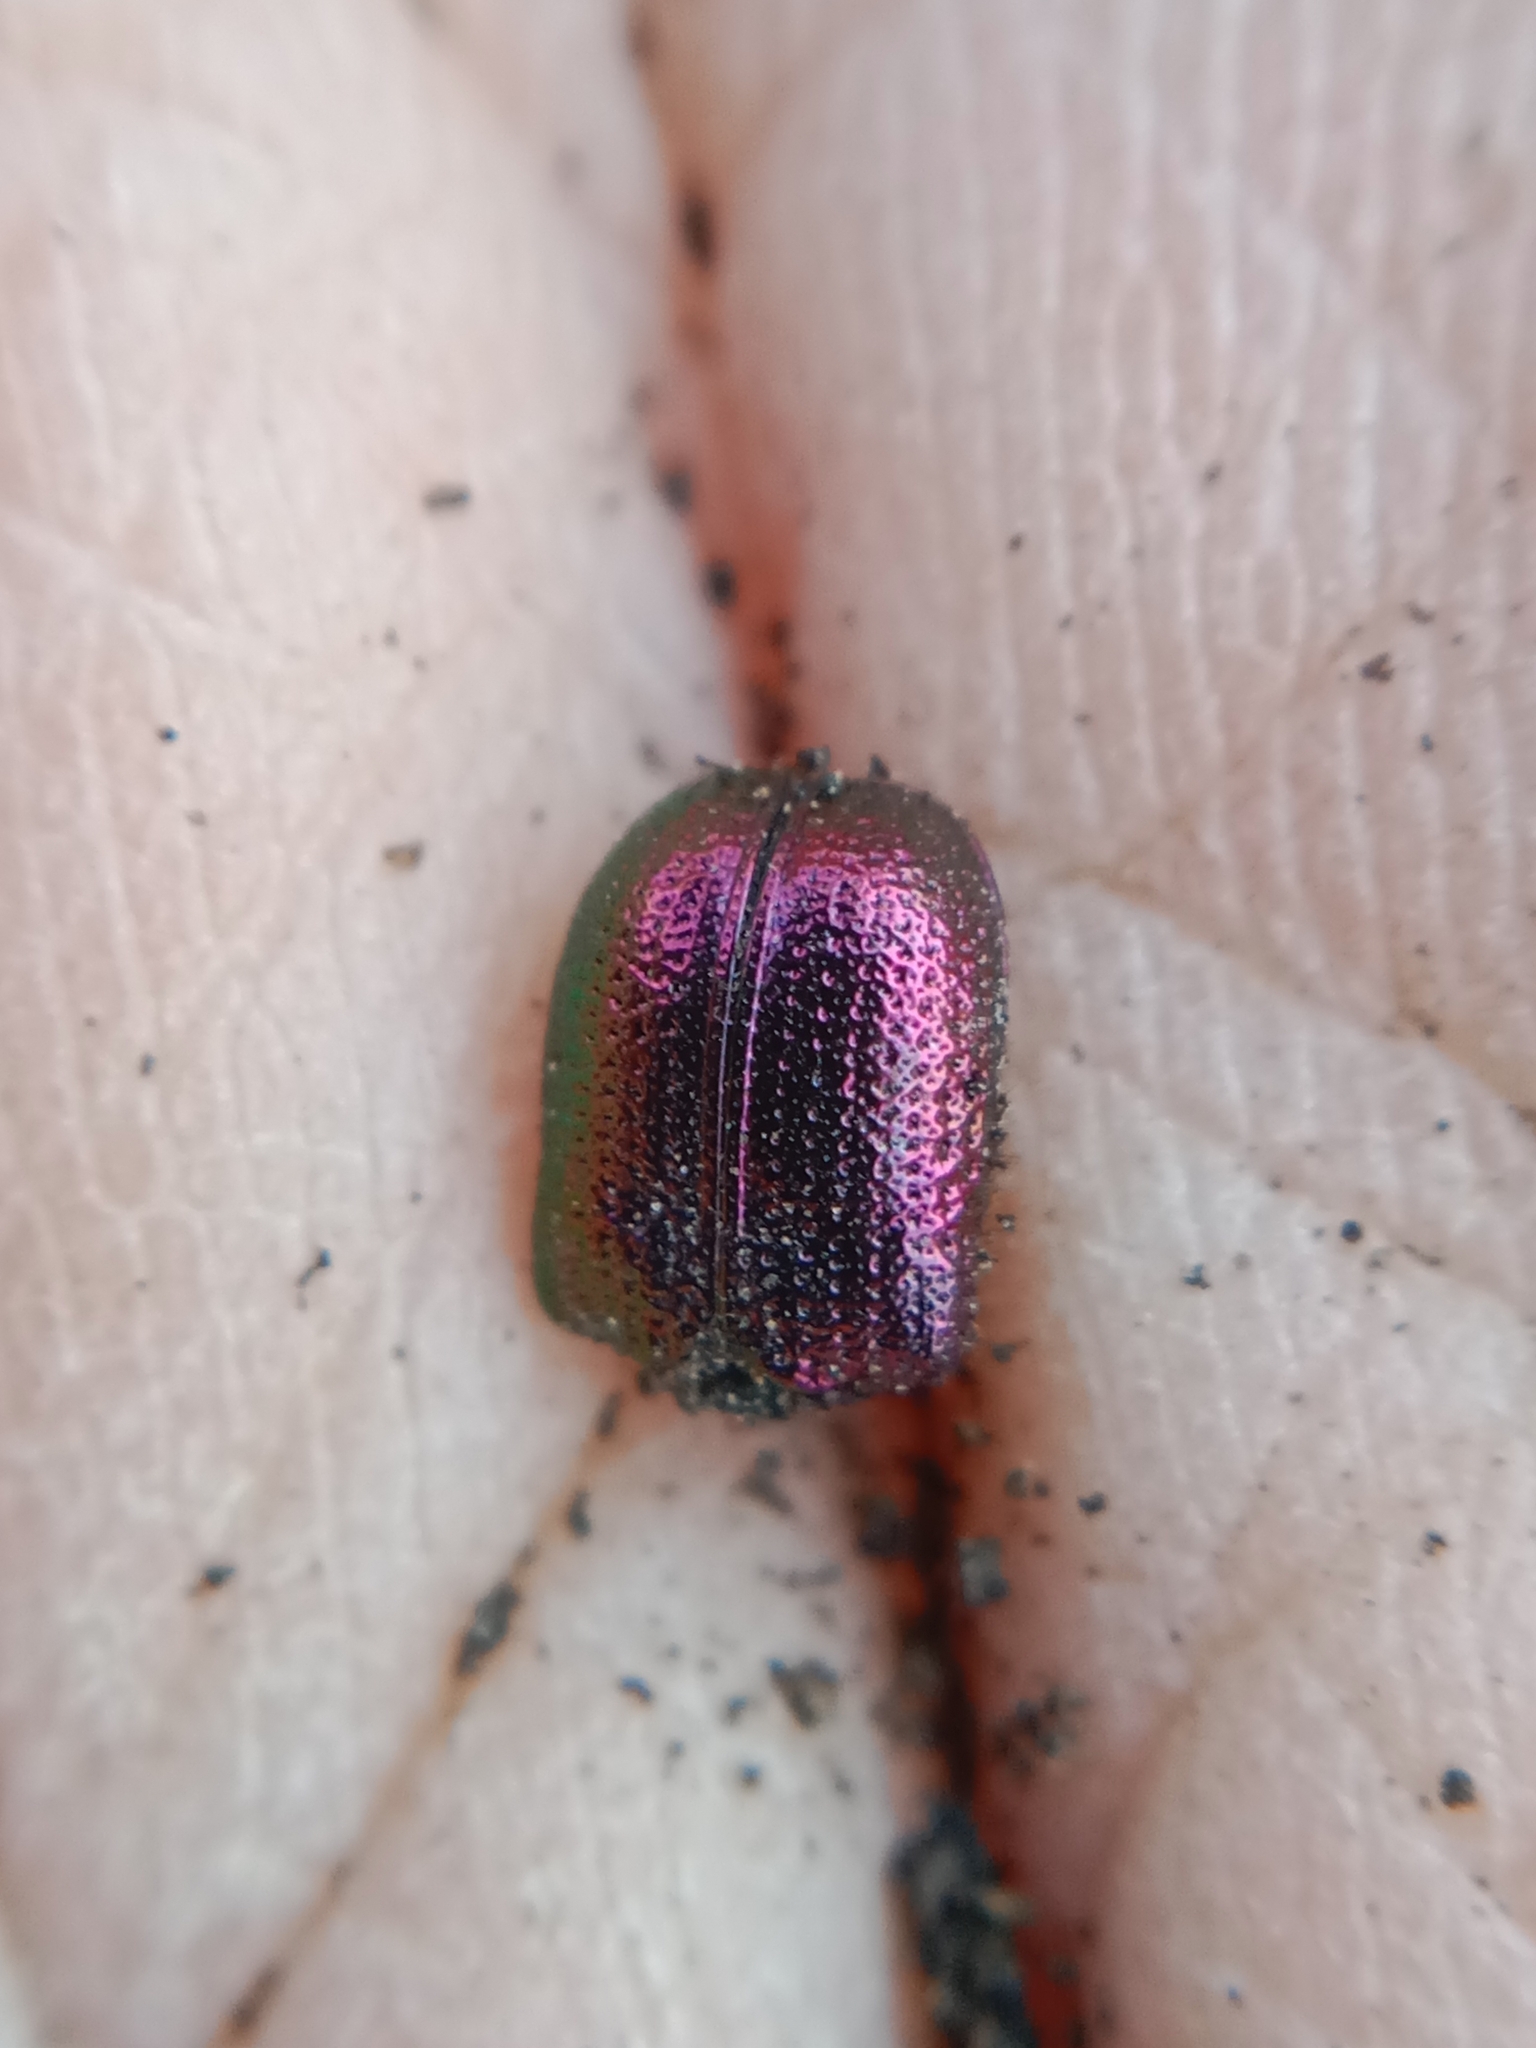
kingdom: Animalia
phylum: Arthropoda
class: Insecta
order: Coleoptera
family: Attelabidae
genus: Rhynchites
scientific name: Rhynchites bacchus
